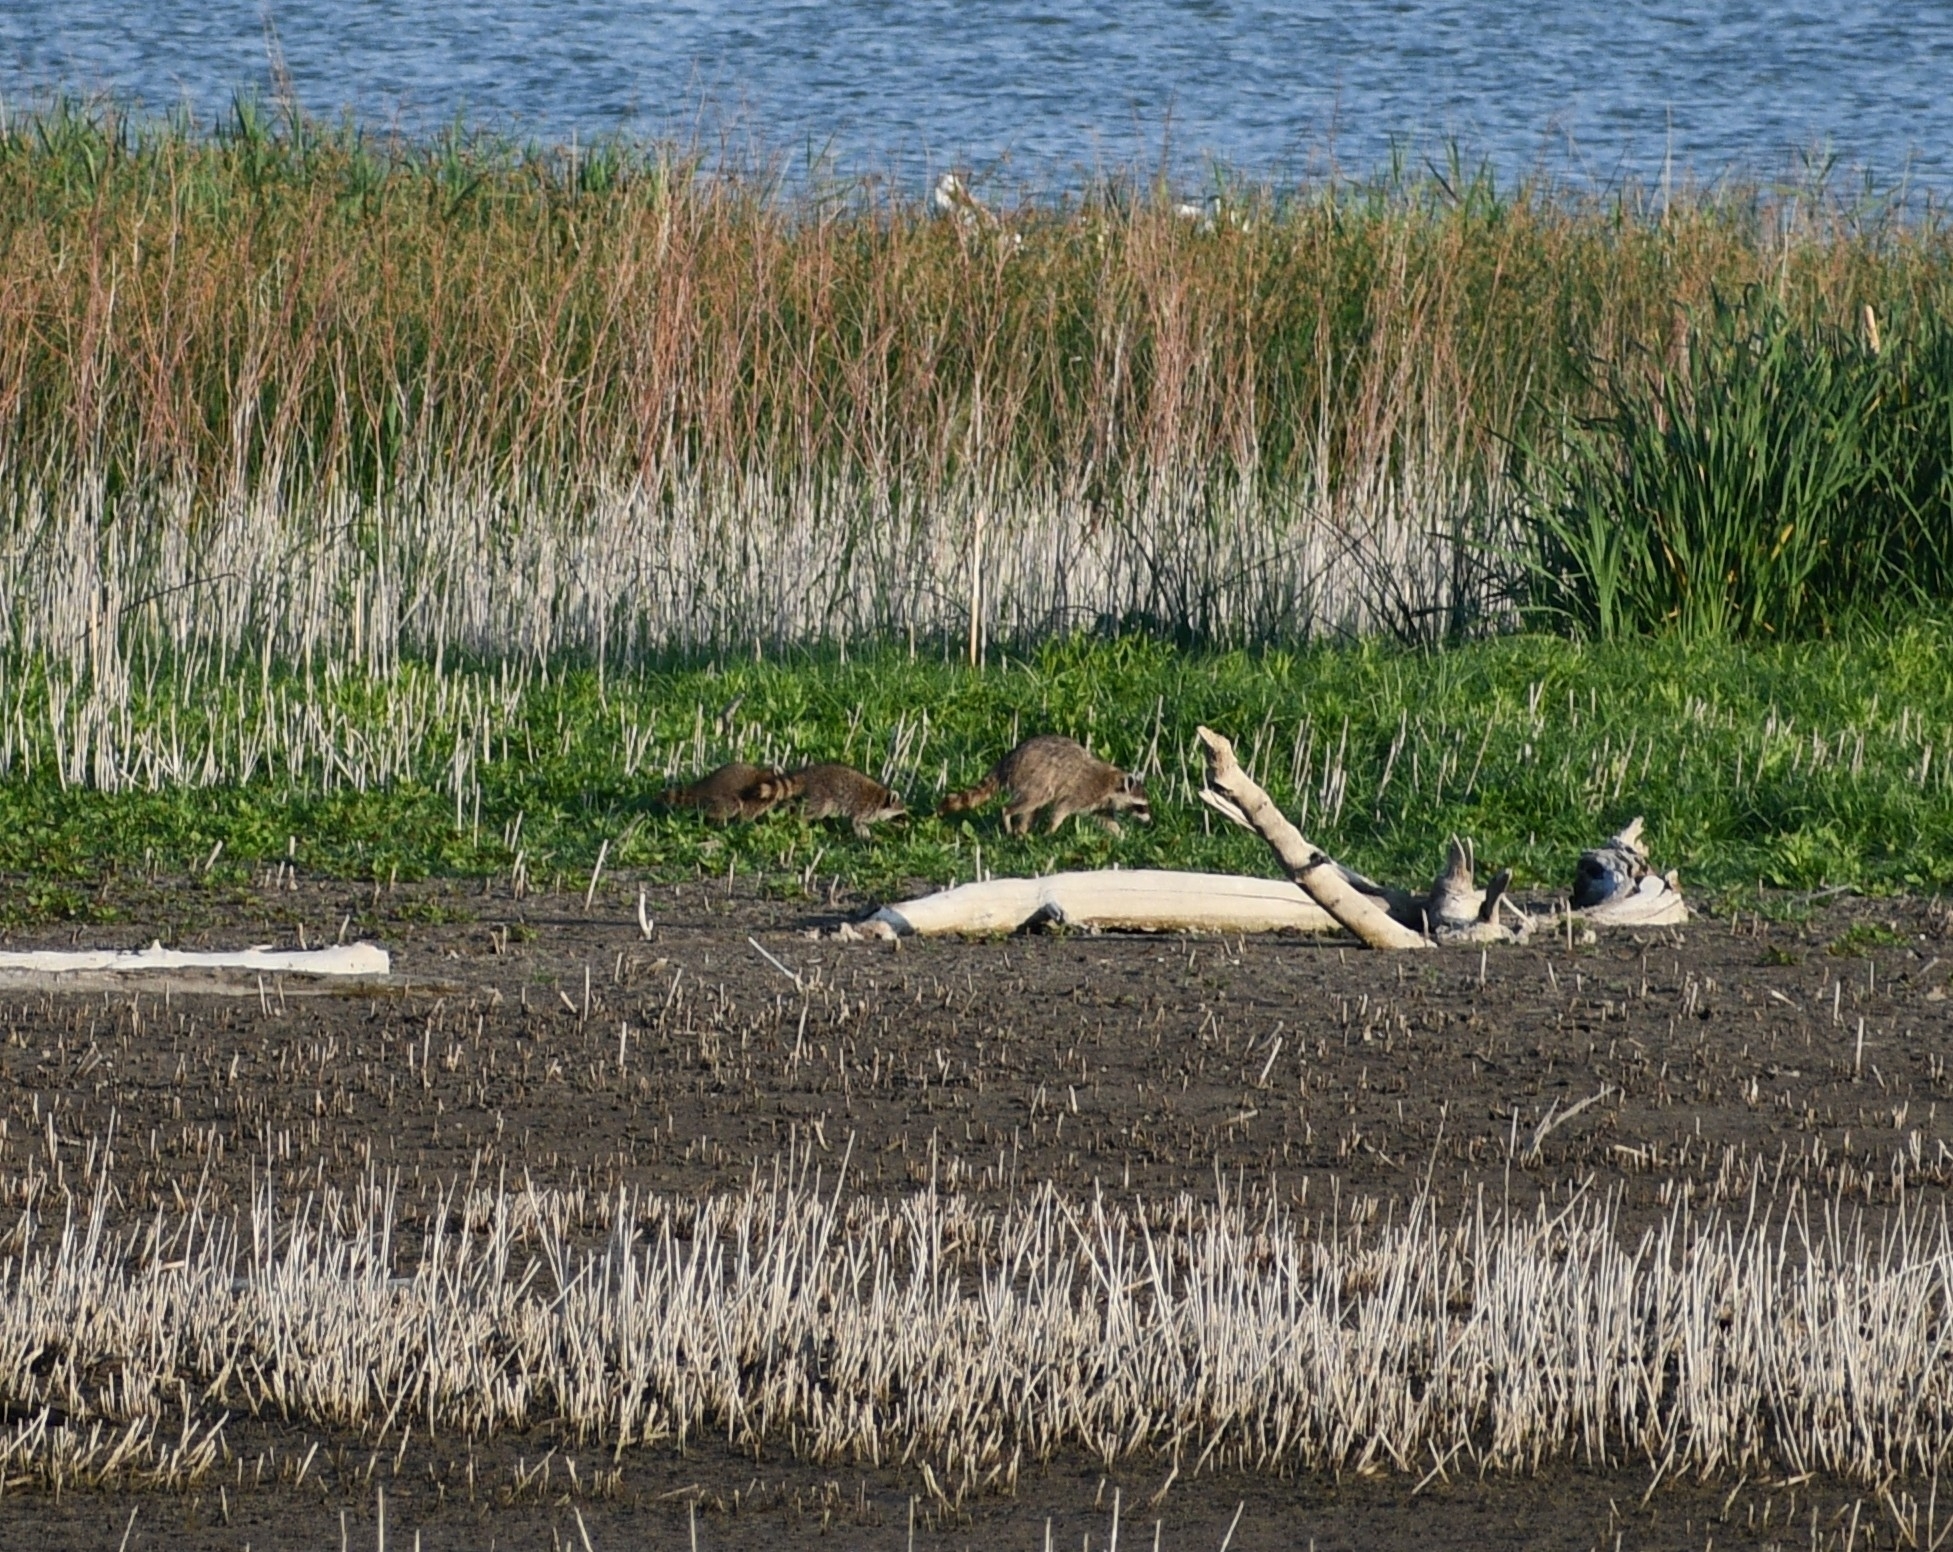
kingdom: Animalia
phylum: Chordata
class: Mammalia
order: Carnivora
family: Procyonidae
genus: Procyon
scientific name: Procyon lotor
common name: Raccoon
